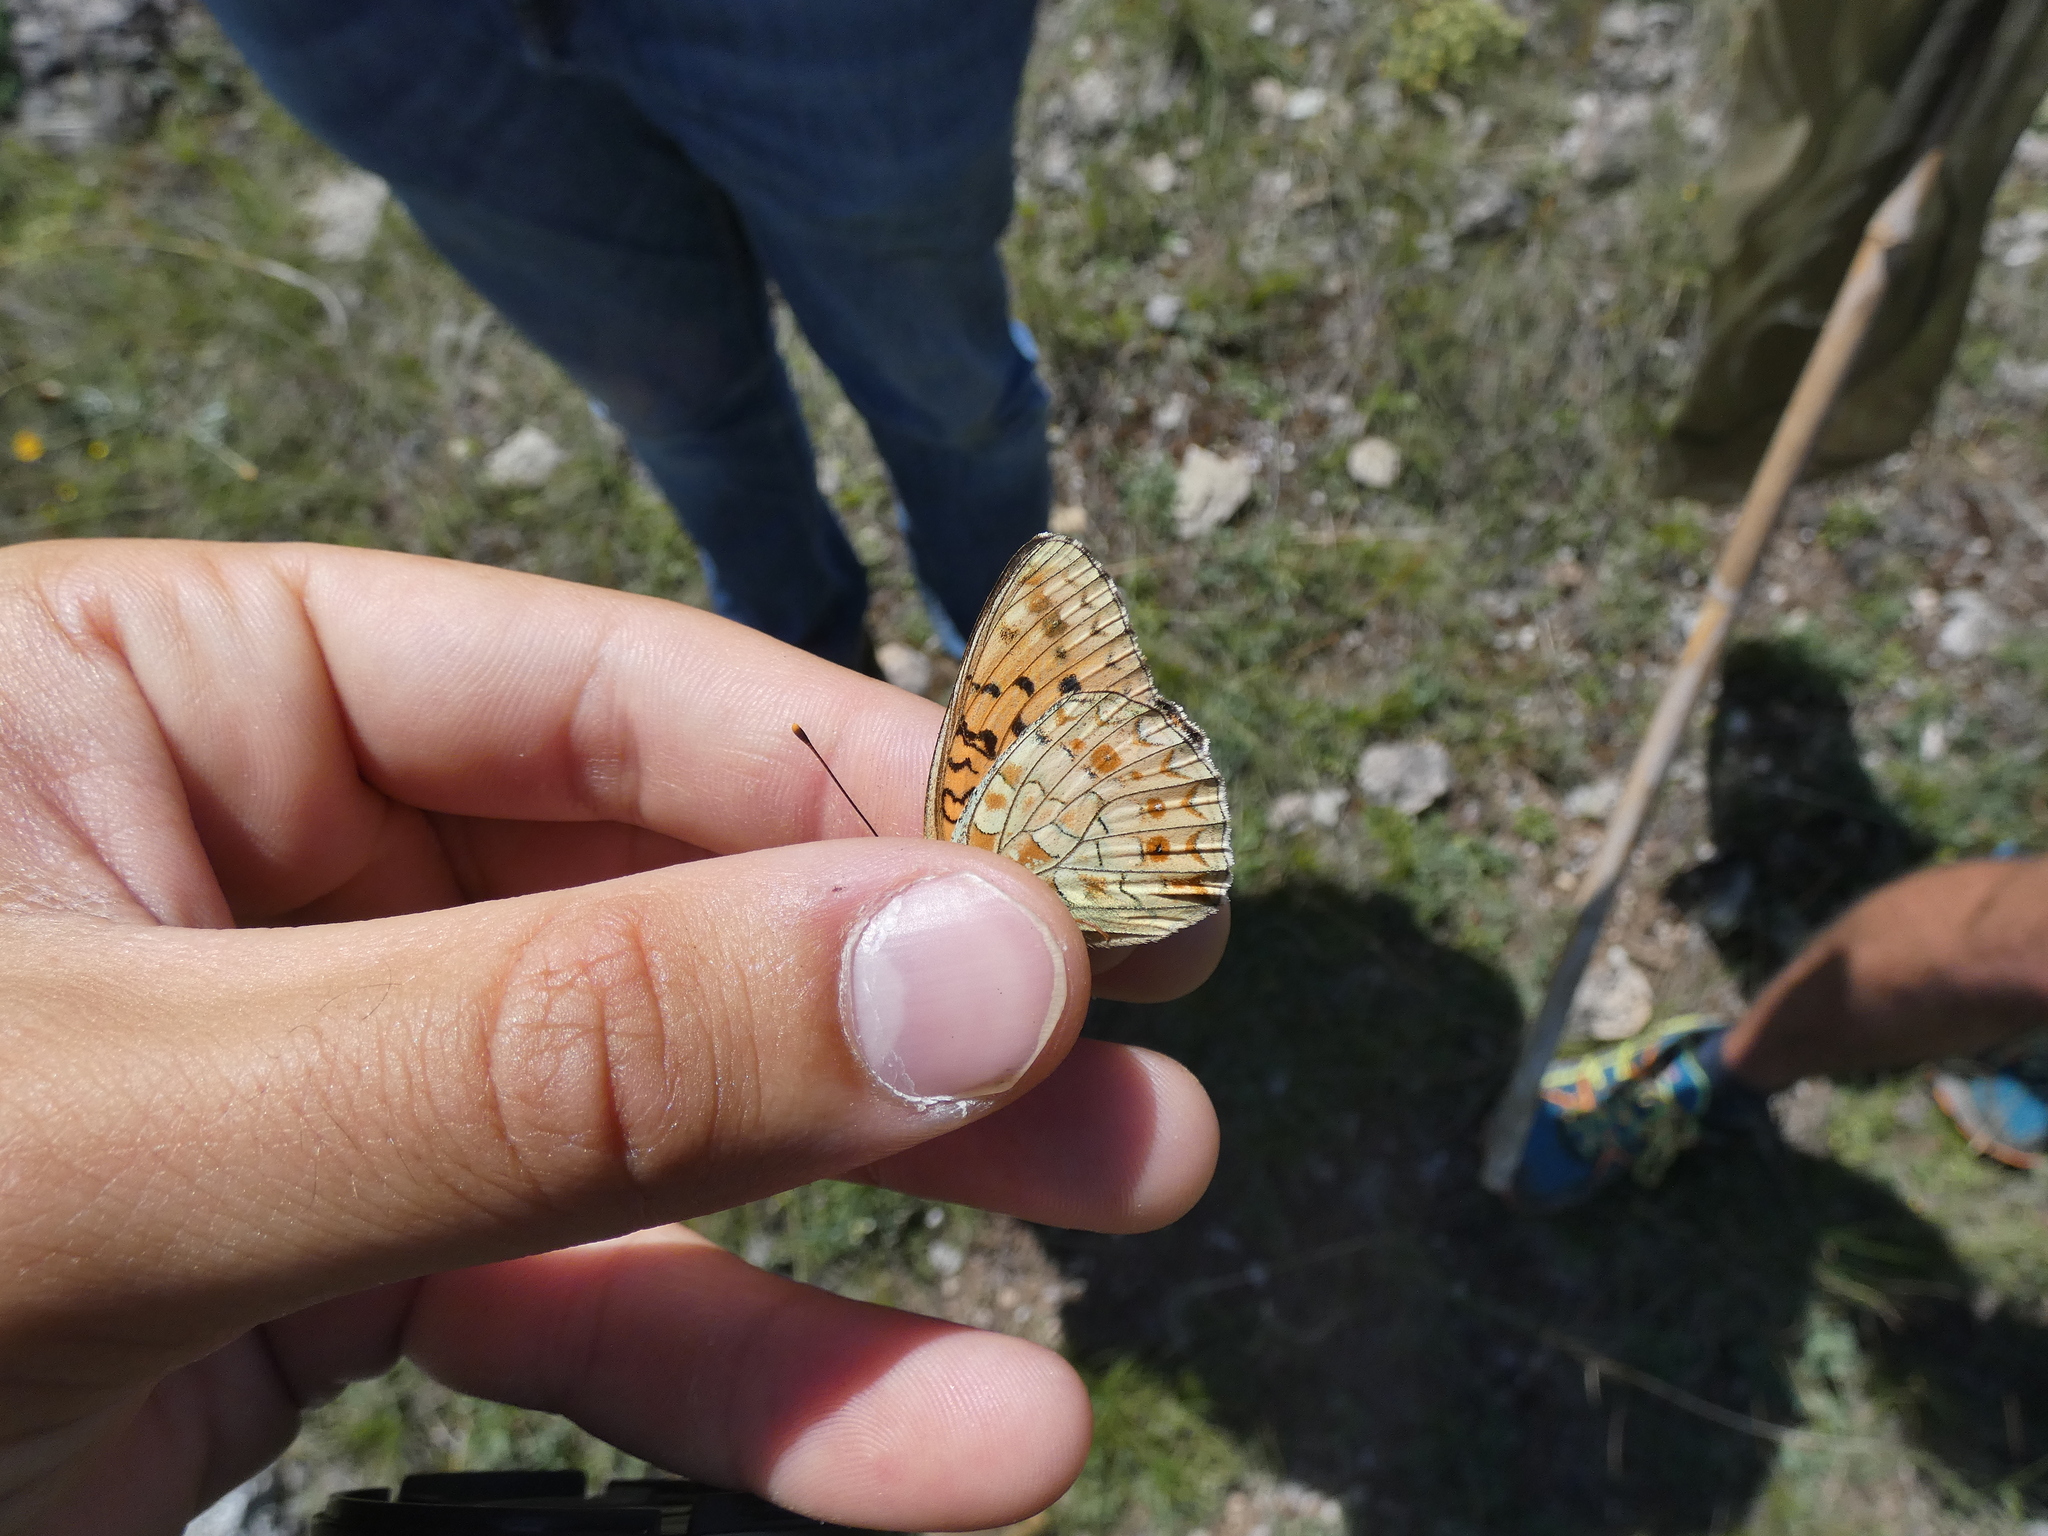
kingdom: Animalia
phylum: Arthropoda
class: Insecta
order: Lepidoptera
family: Nymphalidae
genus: Fabriciana
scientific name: Fabriciana niobe
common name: Niobe fritillary
